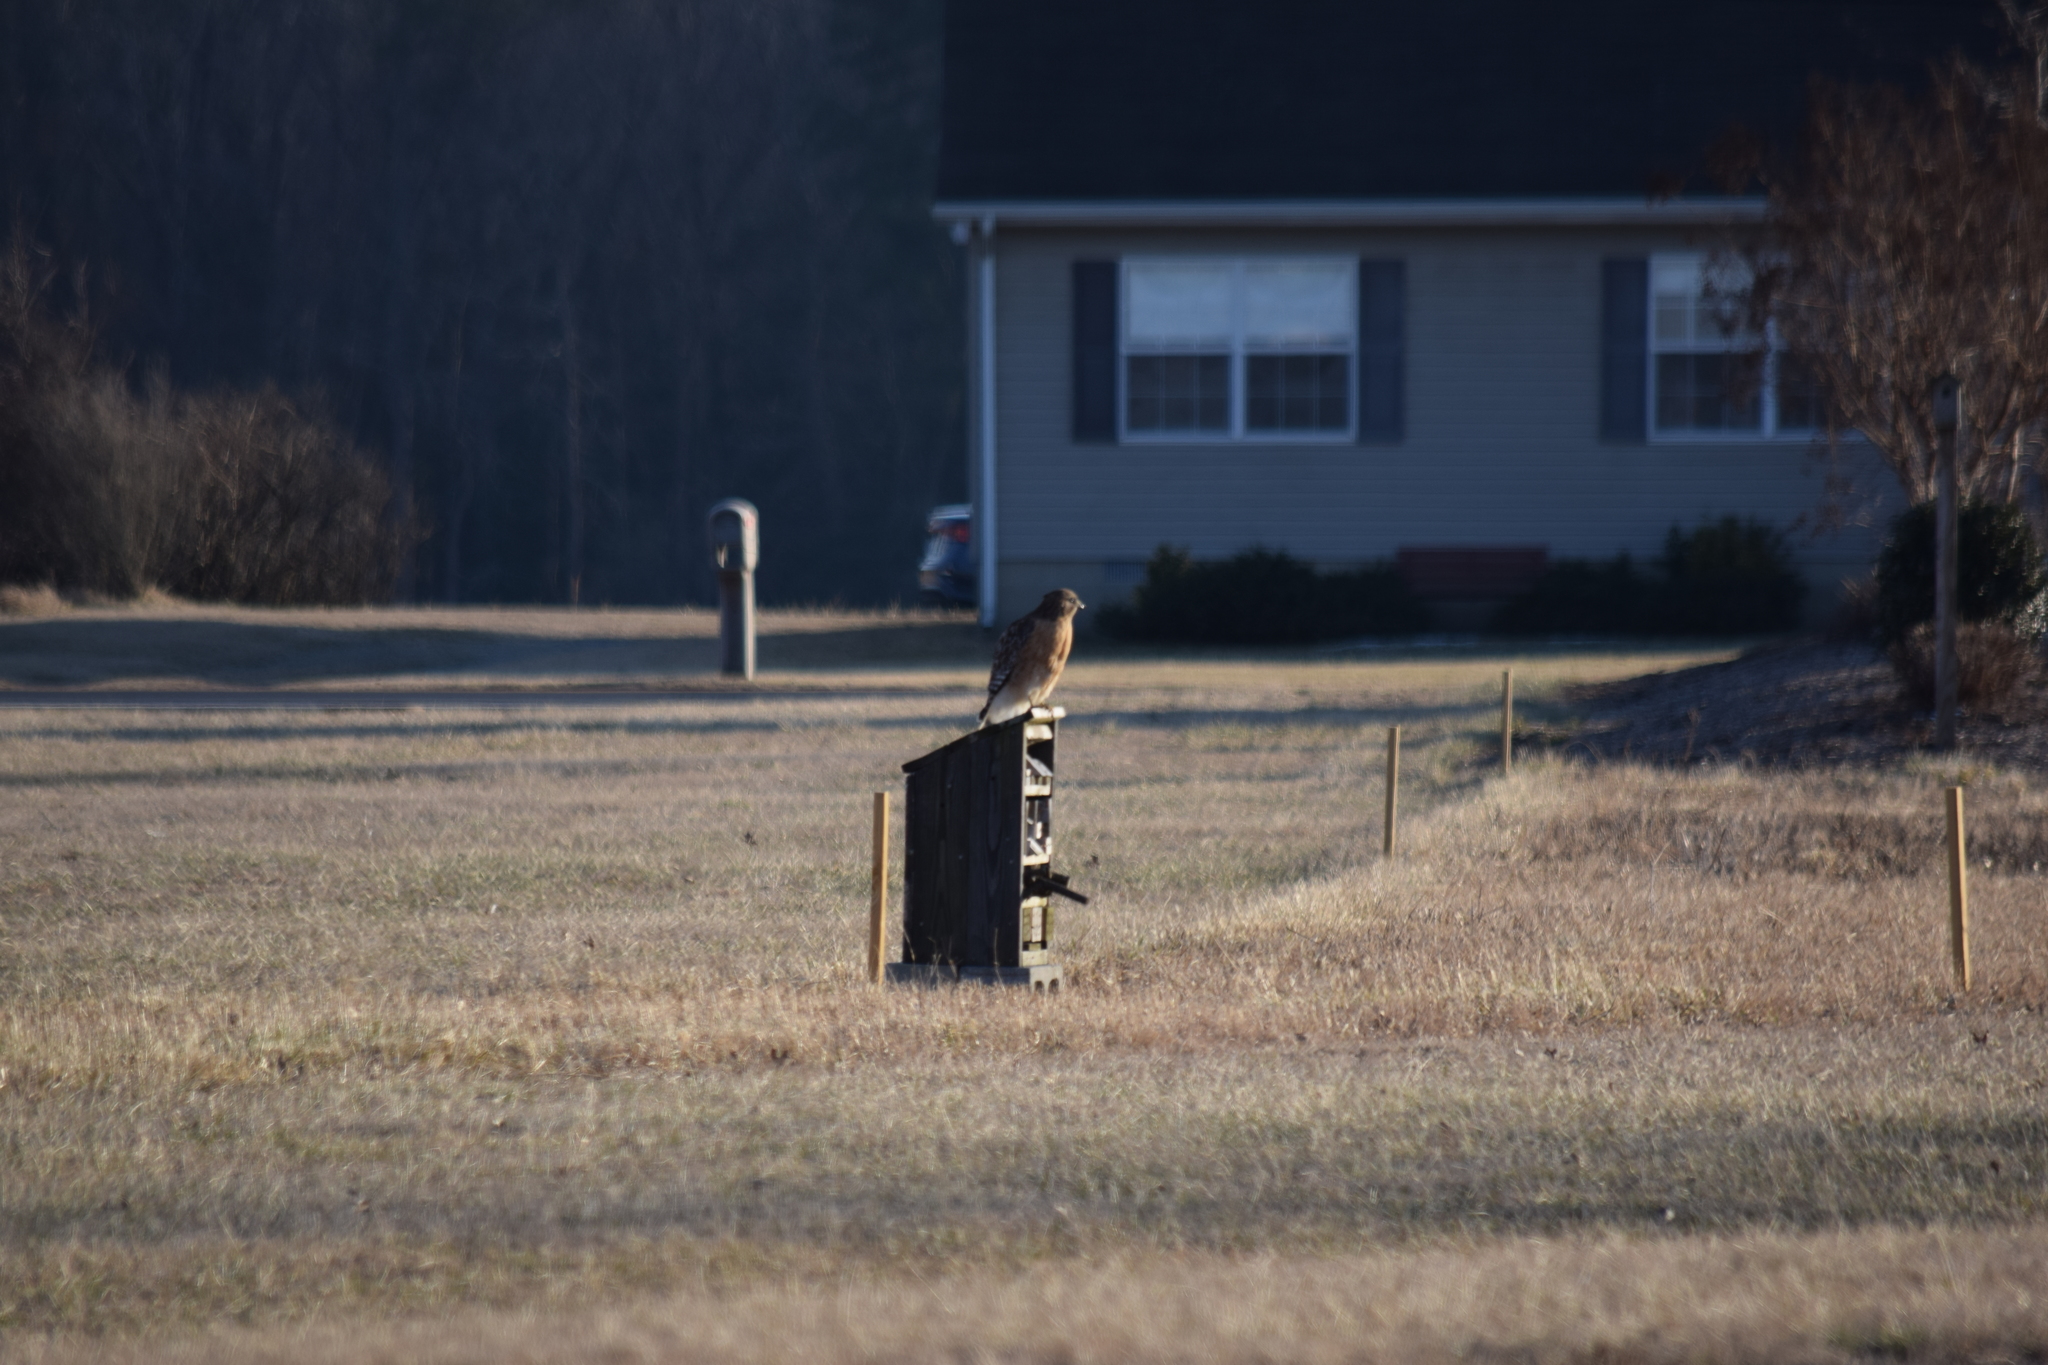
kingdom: Animalia
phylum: Chordata
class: Aves
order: Accipitriformes
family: Accipitridae
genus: Buteo
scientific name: Buteo lineatus
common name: Red-shouldered hawk
